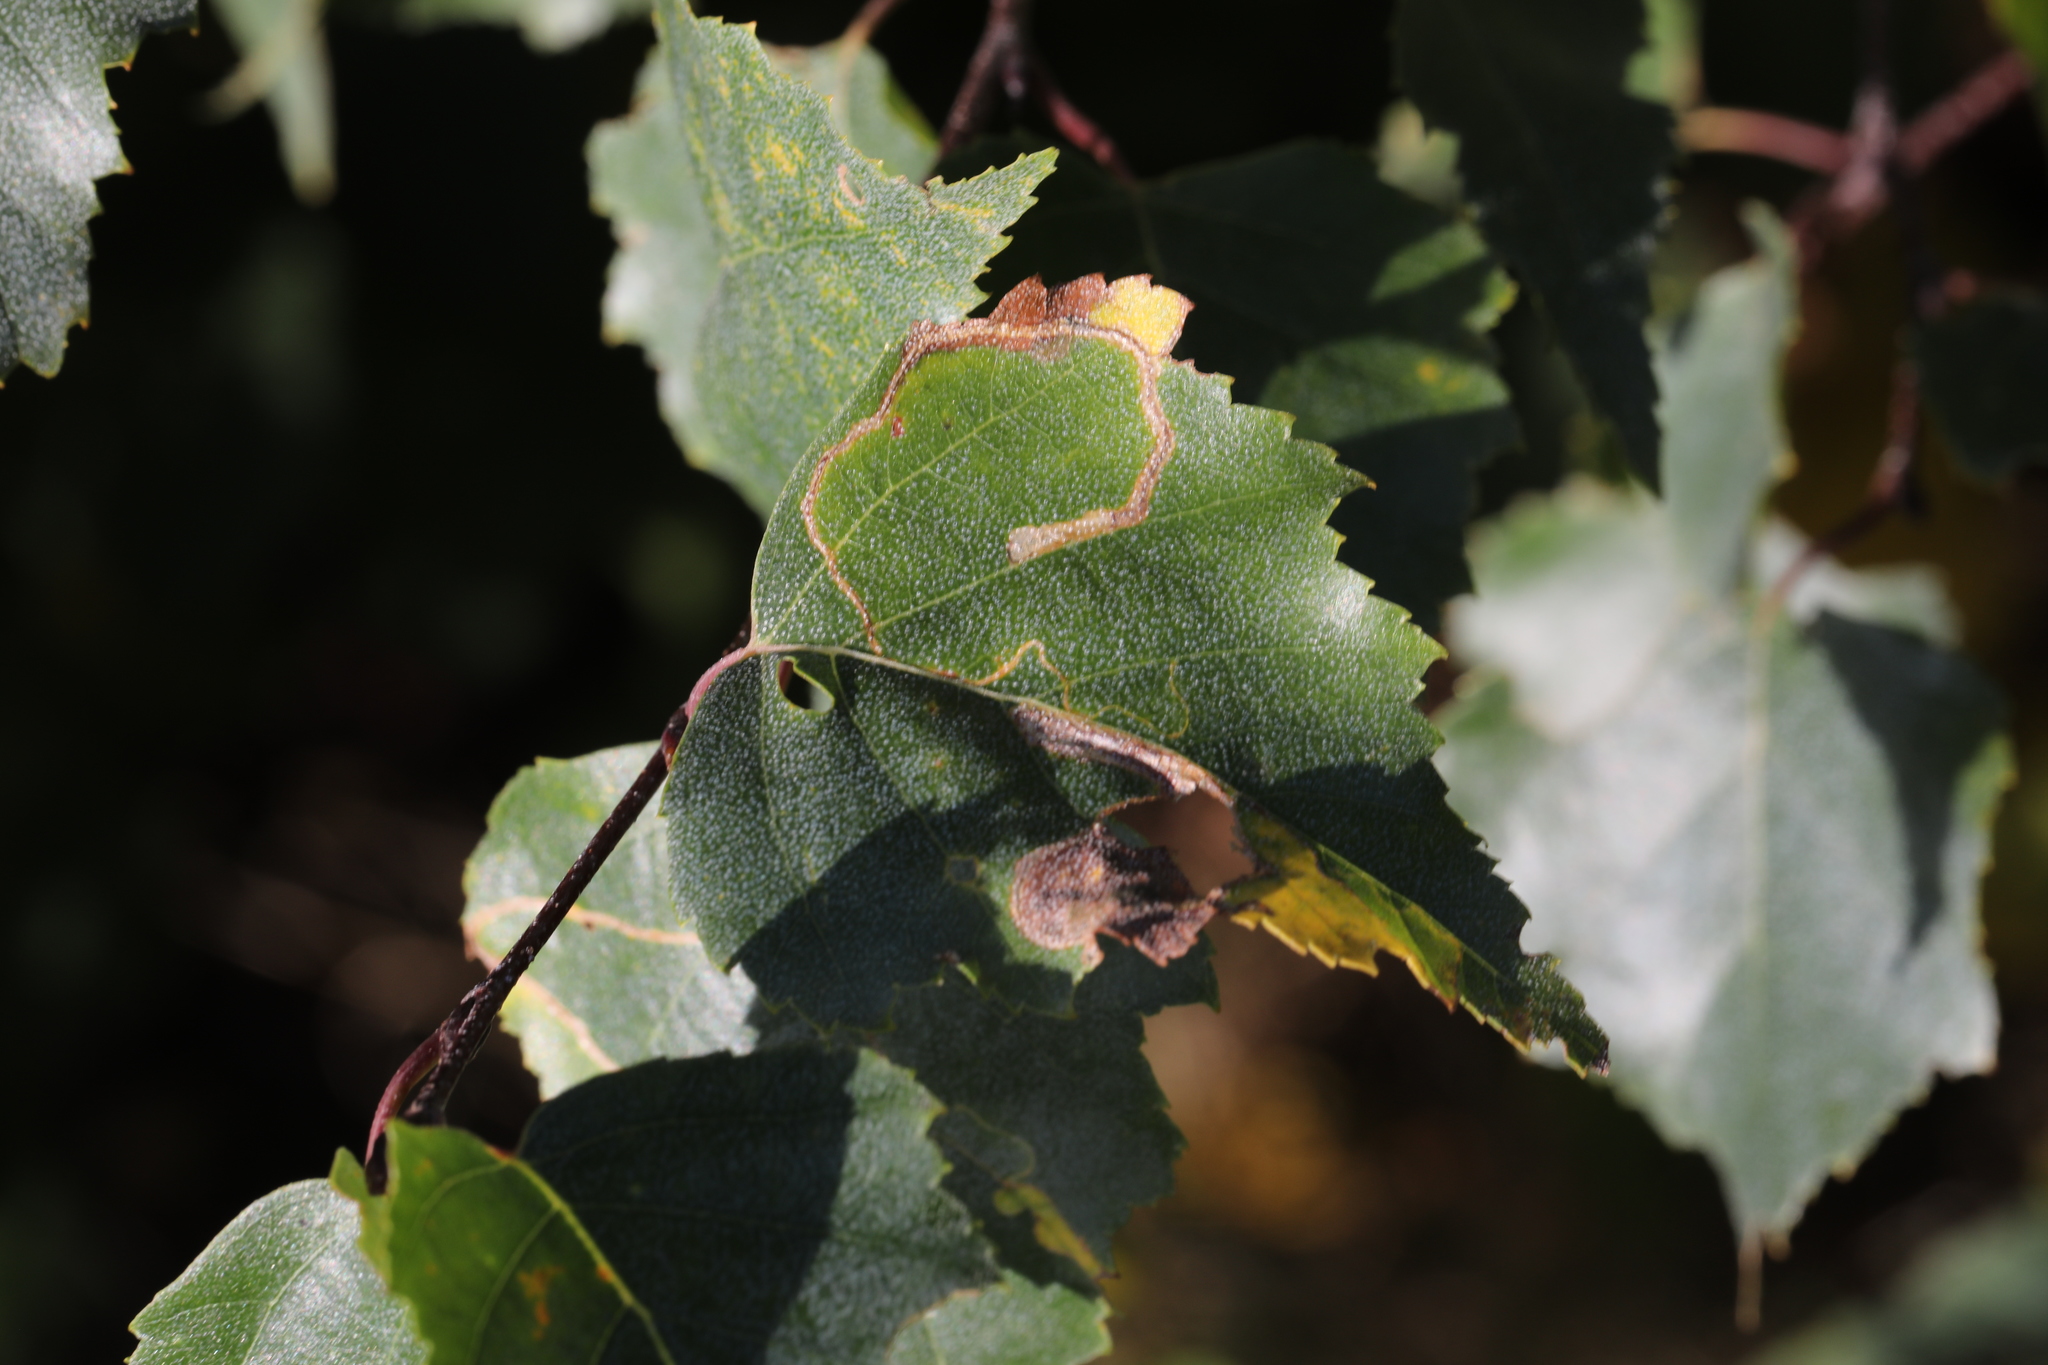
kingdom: Animalia
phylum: Arthropoda
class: Insecta
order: Lepidoptera
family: Lyonetiidae
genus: Lyonetia
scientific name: Lyonetia clerkella
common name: Apple leaf miner
